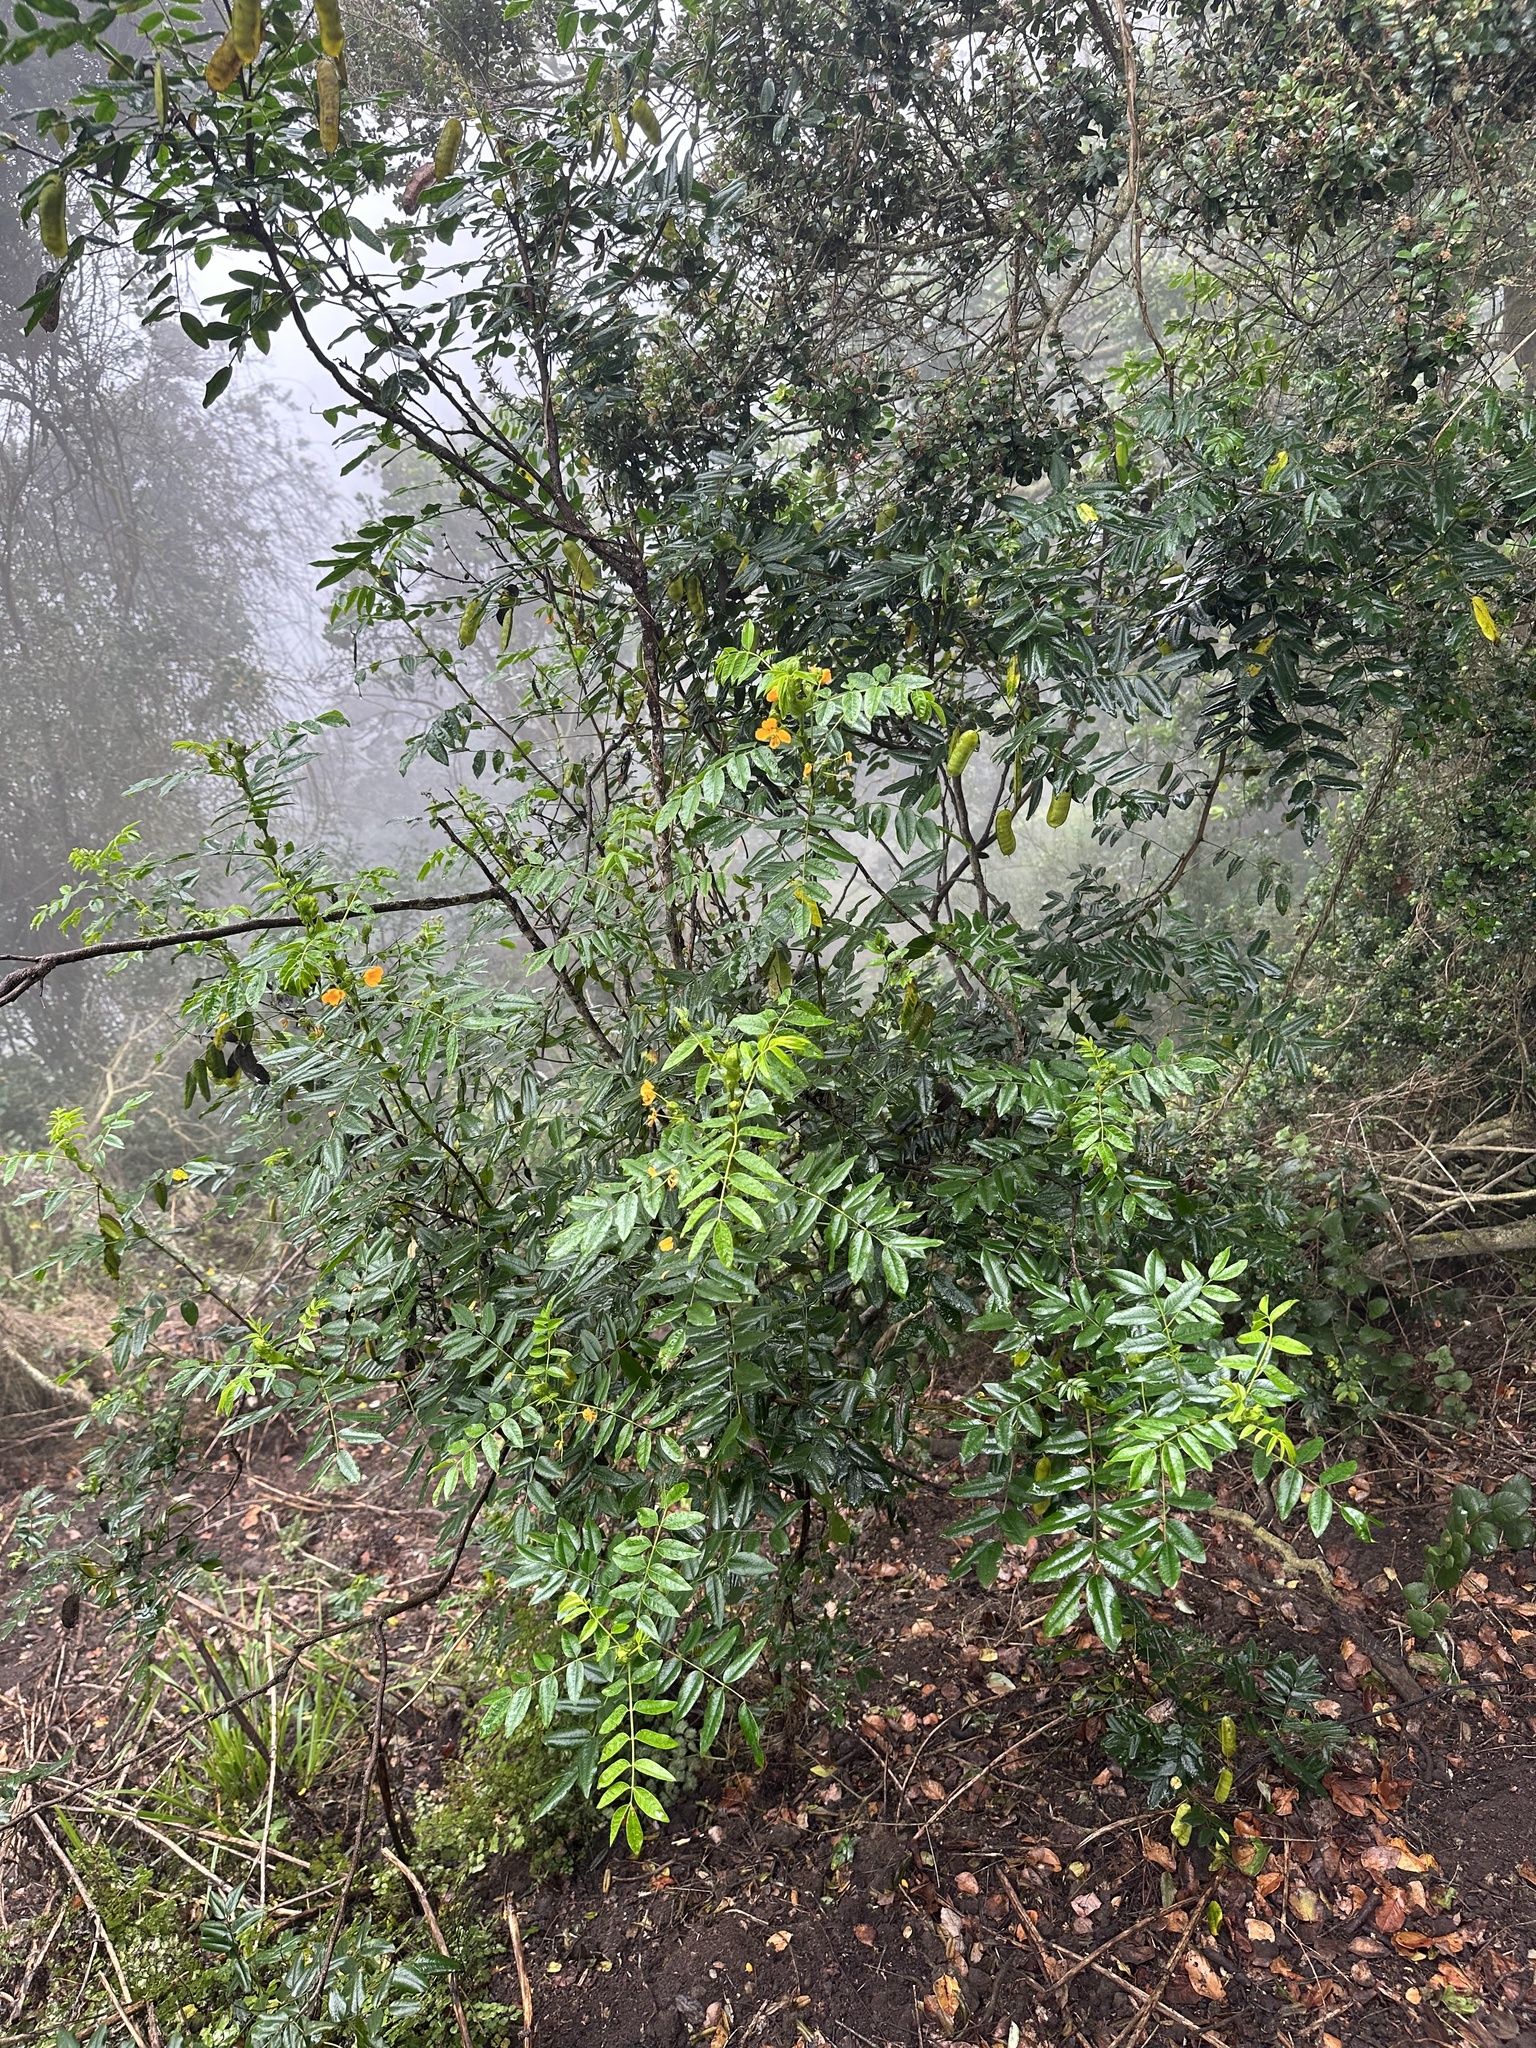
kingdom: Plantae
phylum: Tracheophyta
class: Magnoliopsida
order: Fabales
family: Fabaceae
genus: Senna
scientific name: Senna stipulacea
